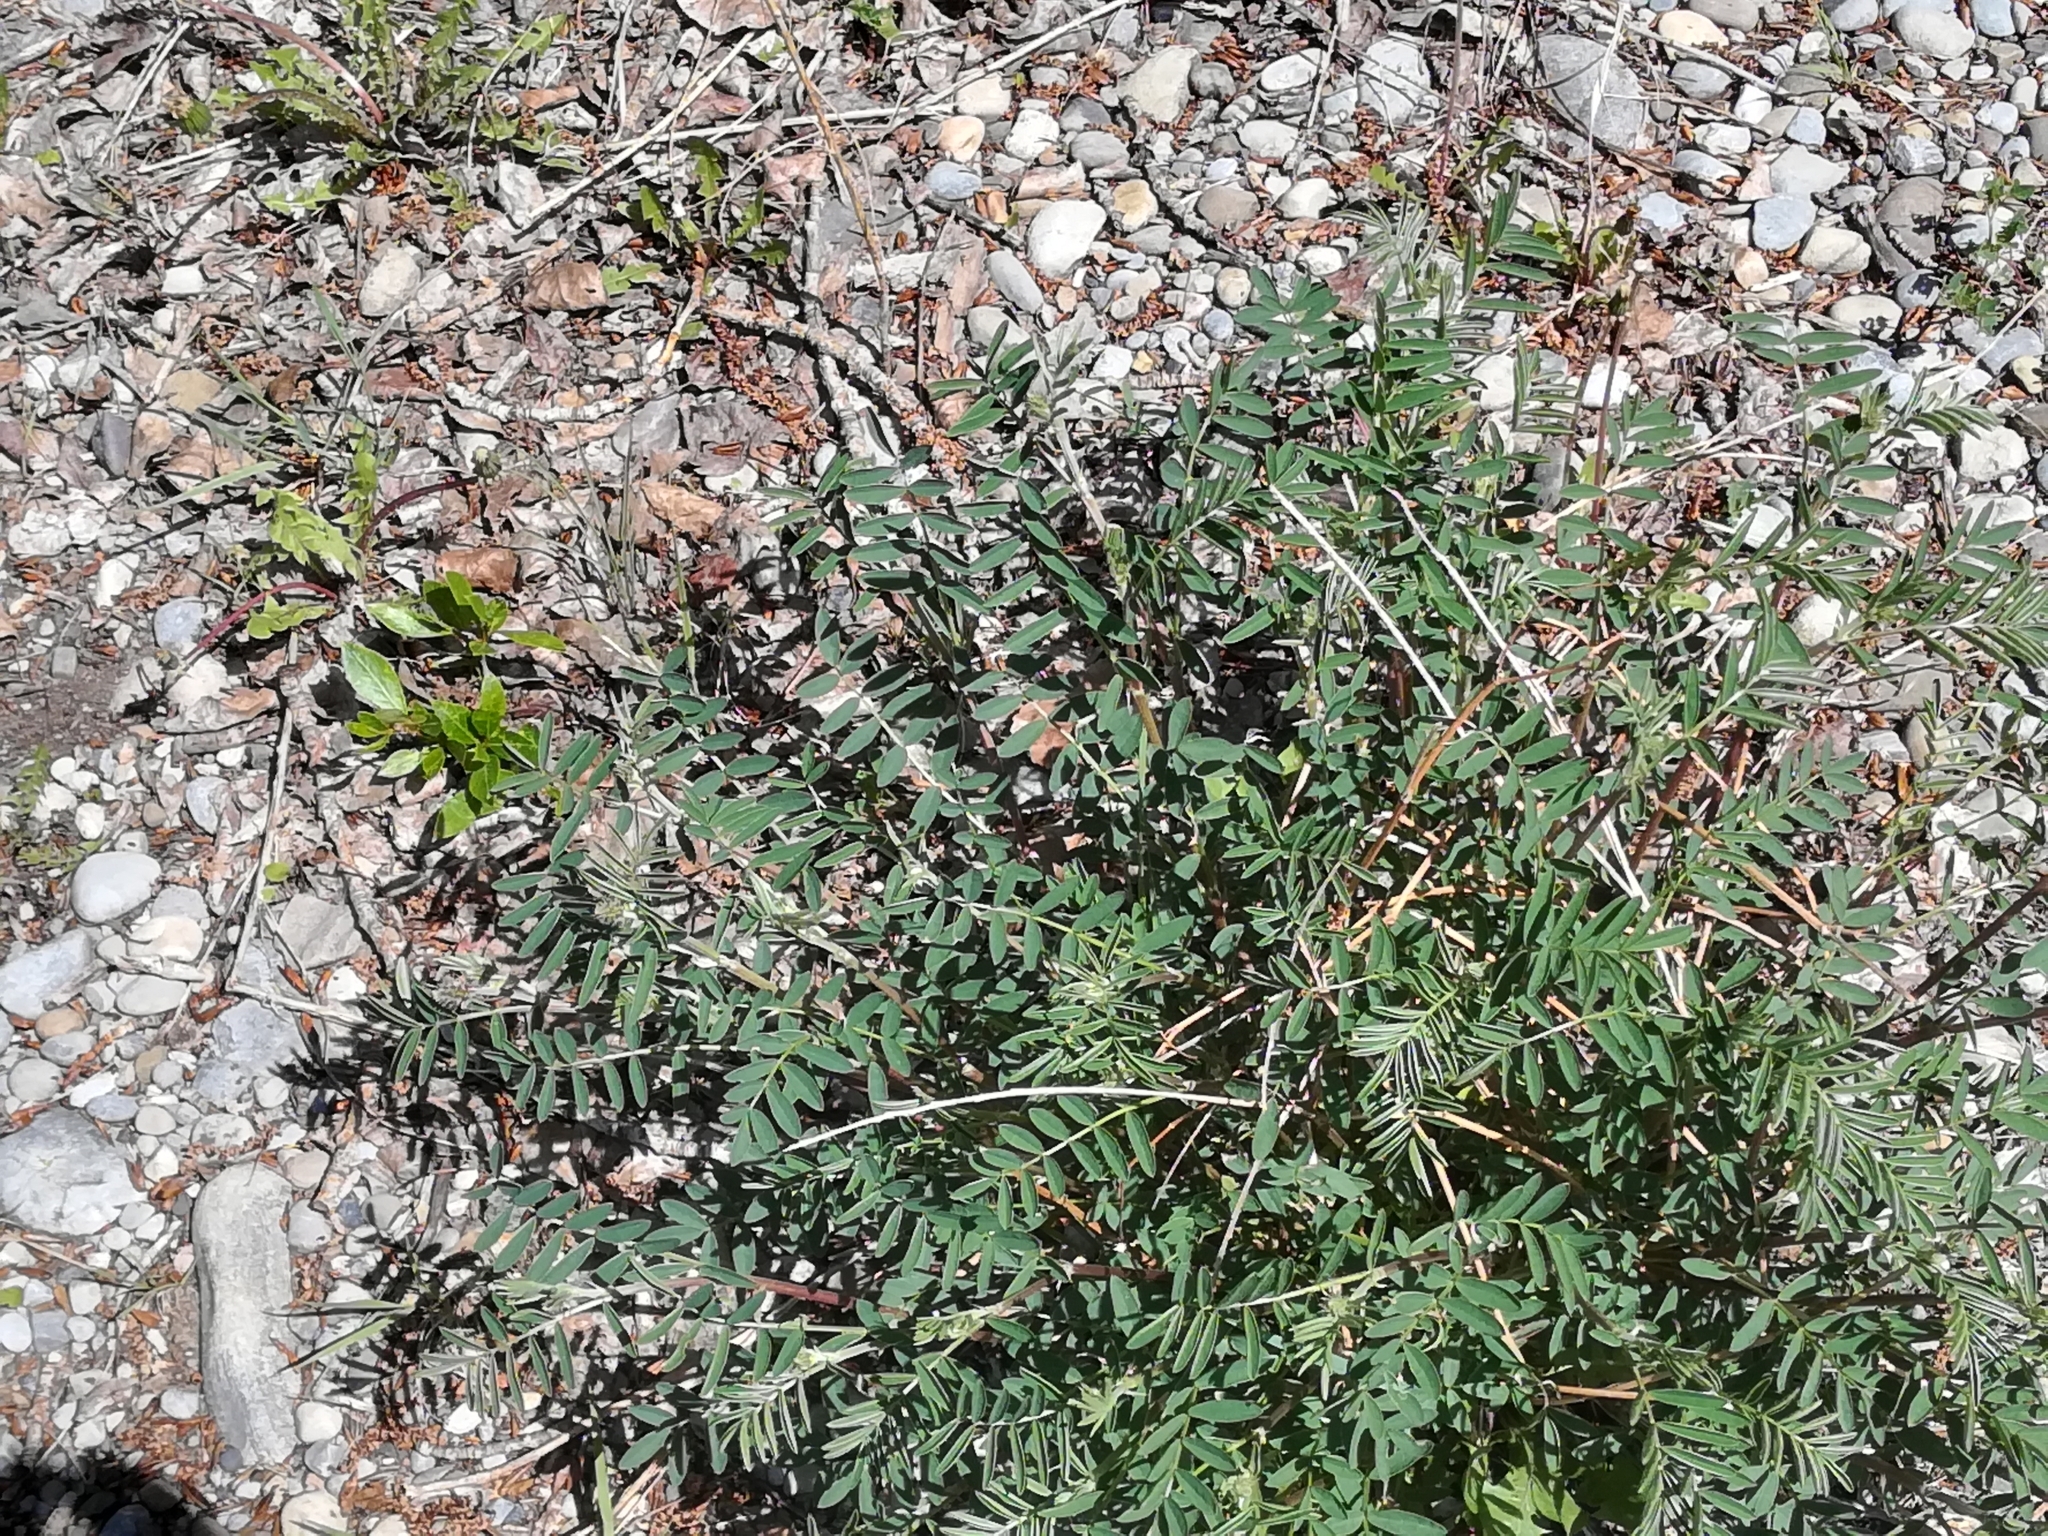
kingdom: Plantae
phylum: Tracheophyta
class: Magnoliopsida
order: Fabales
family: Fabaceae
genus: Hedysarum
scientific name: Hedysarum boreale
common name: Northern sweet-vetch
